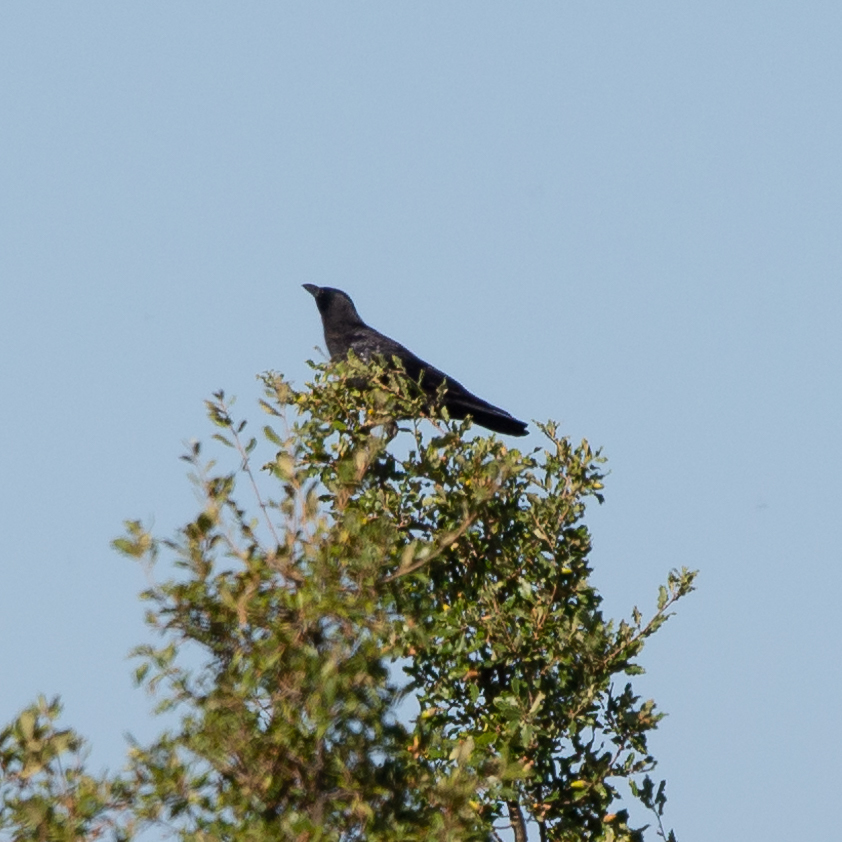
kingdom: Animalia
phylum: Chordata
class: Aves
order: Passeriformes
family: Corvidae
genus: Corvus
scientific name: Corvus corone
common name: Carrion crow
